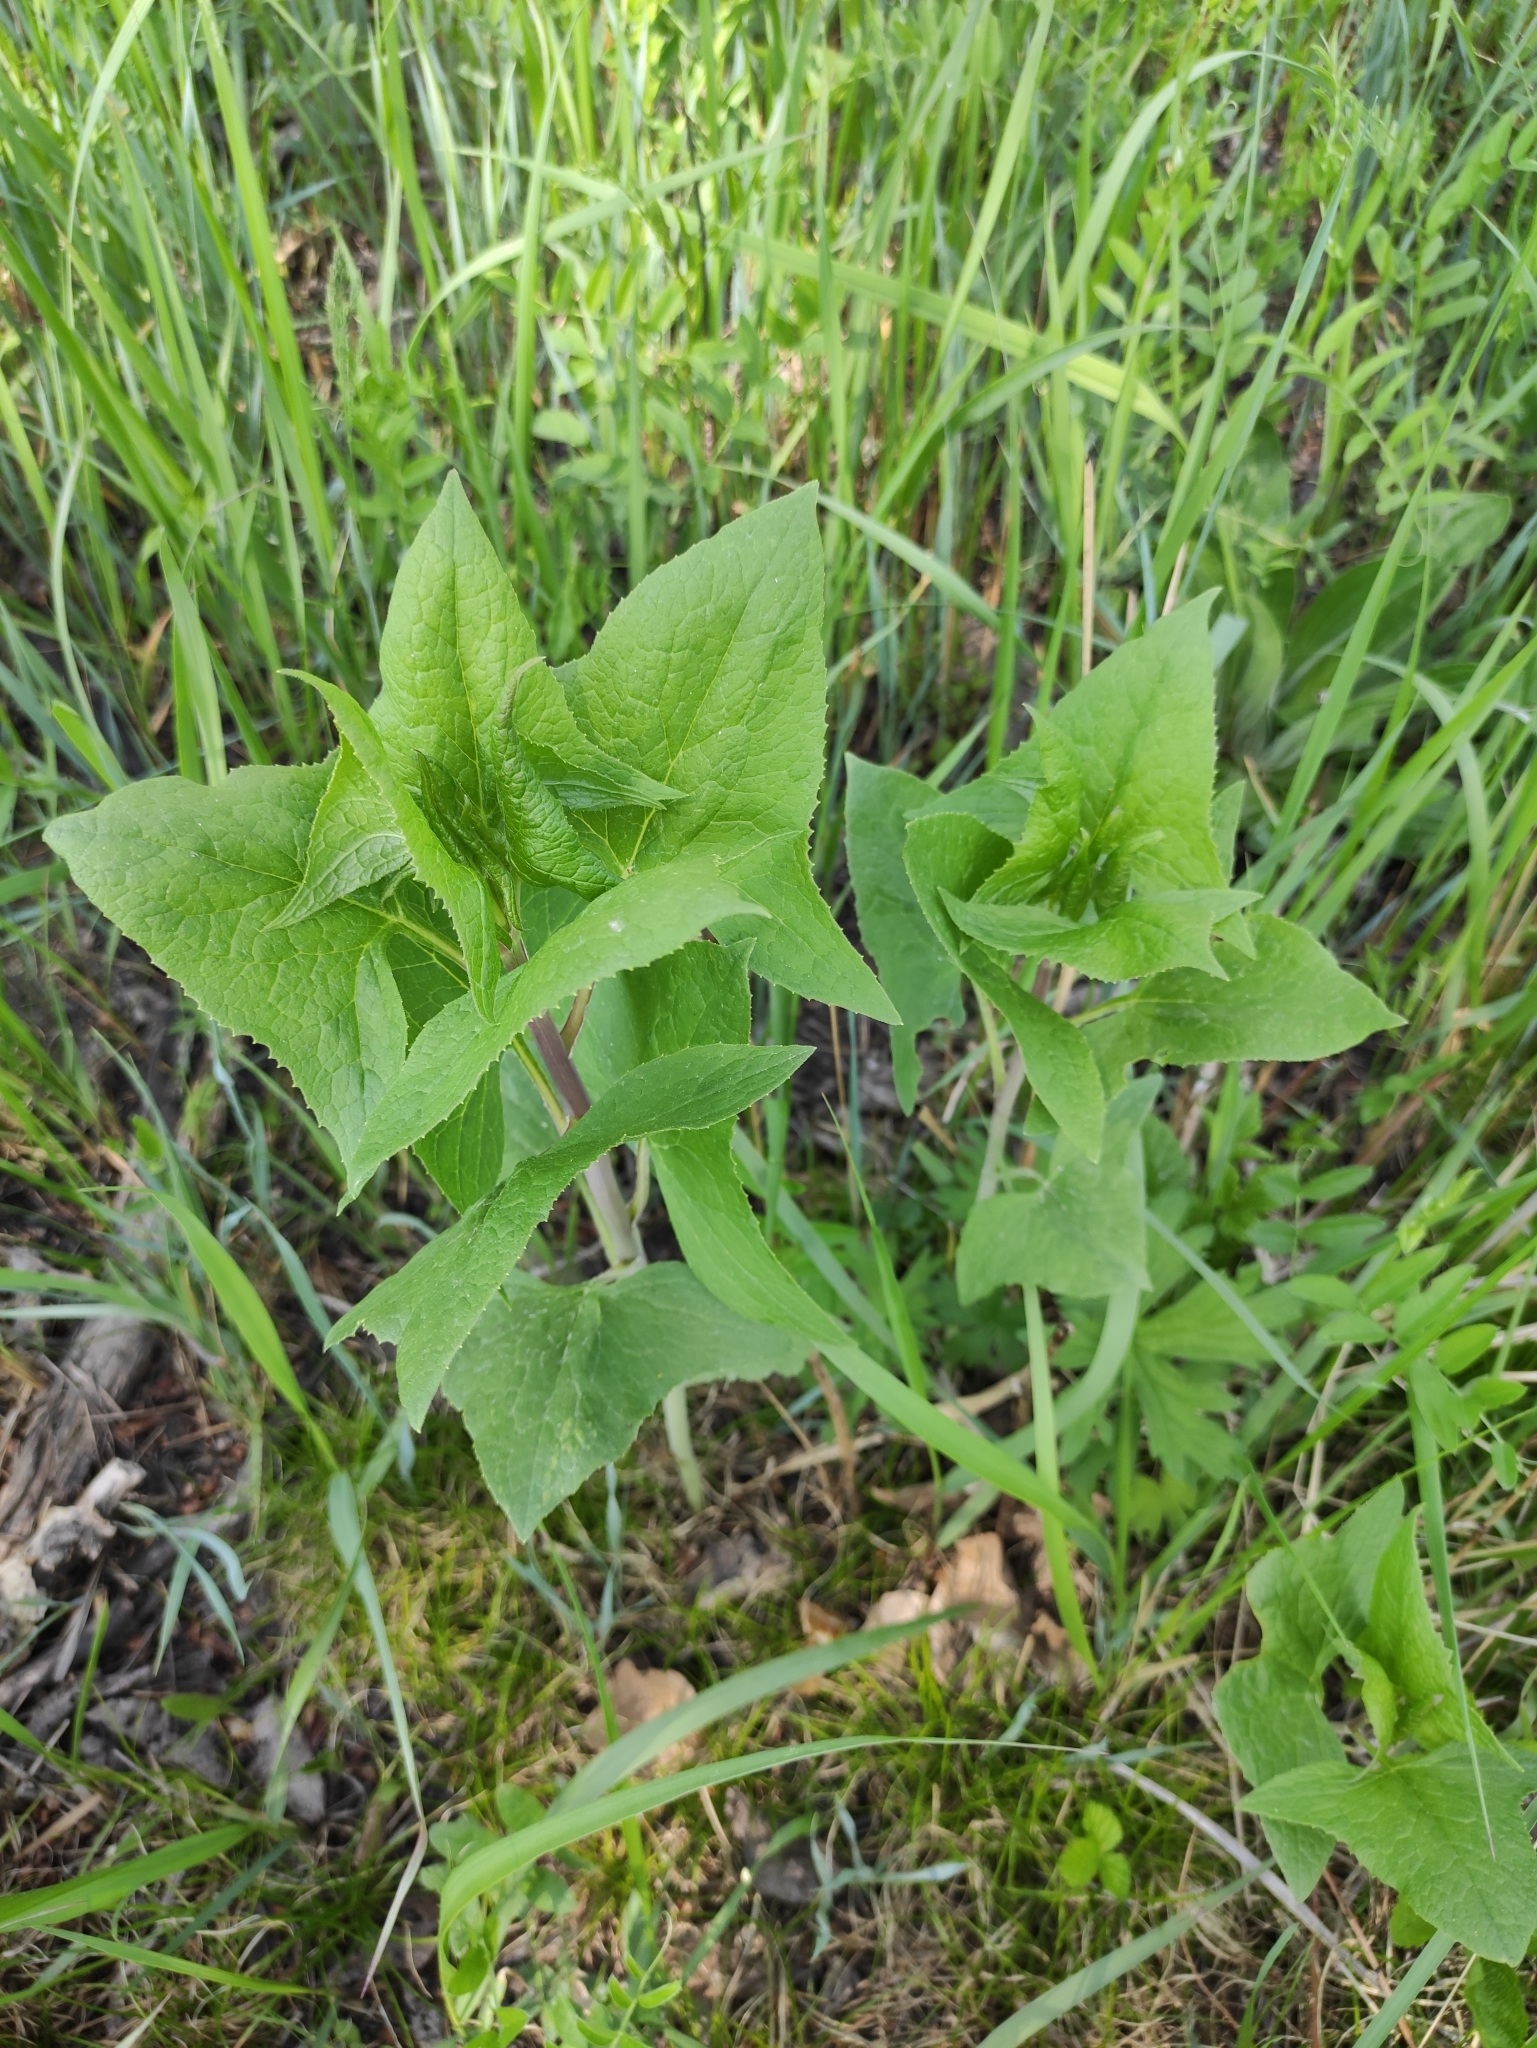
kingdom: Plantae
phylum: Tracheophyta
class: Magnoliopsida
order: Asterales
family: Asteraceae
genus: Parasenecio
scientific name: Parasenecio hastatus
